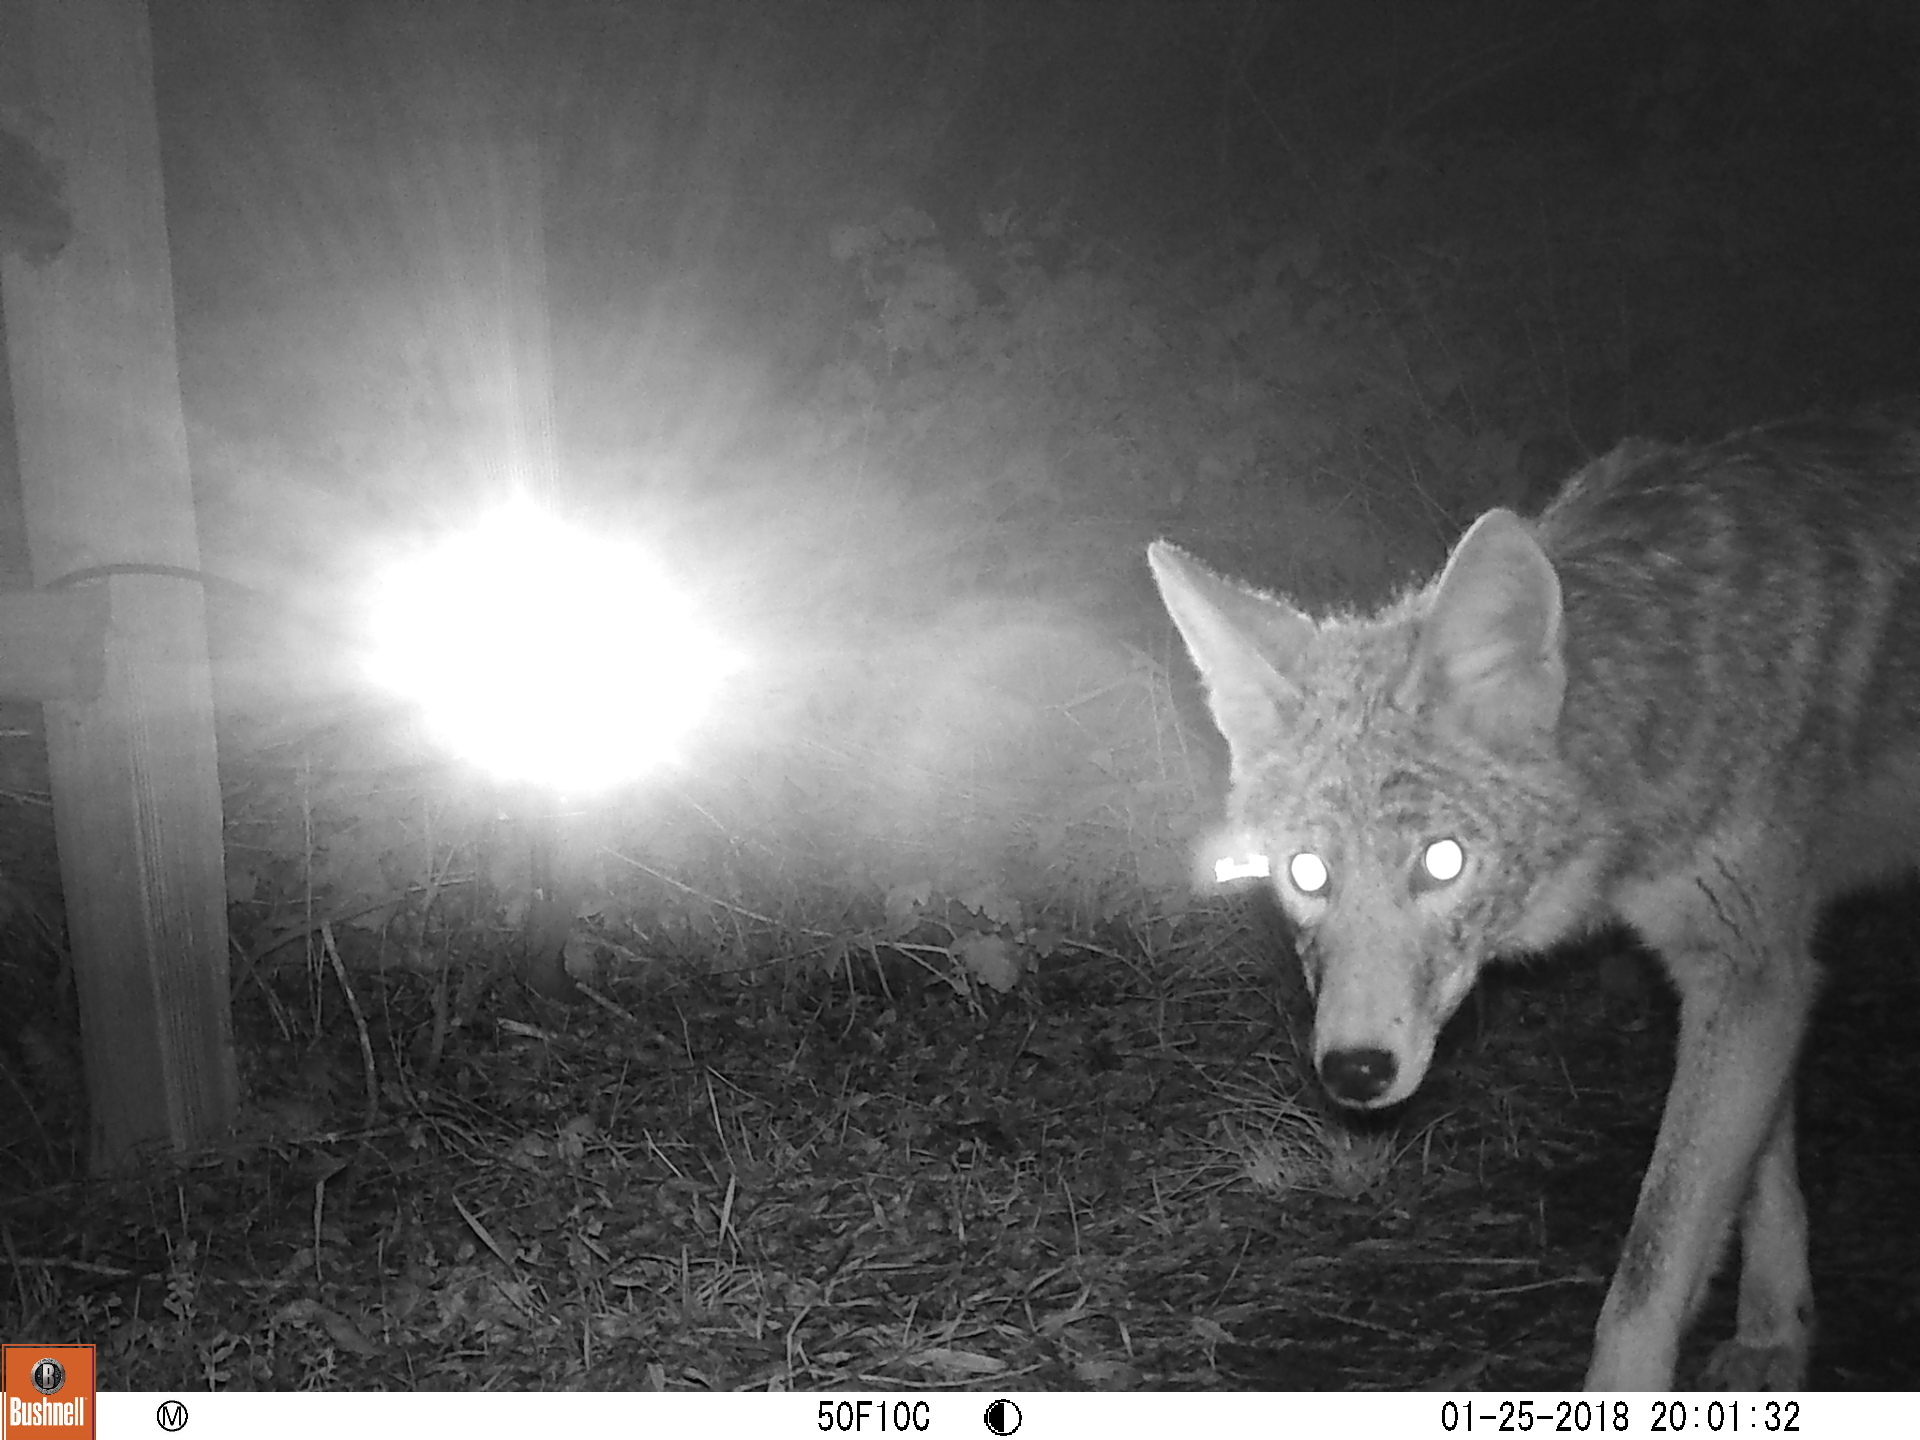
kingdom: Animalia
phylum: Chordata
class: Mammalia
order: Carnivora
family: Canidae
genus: Canis
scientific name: Canis latrans
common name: Coyote
